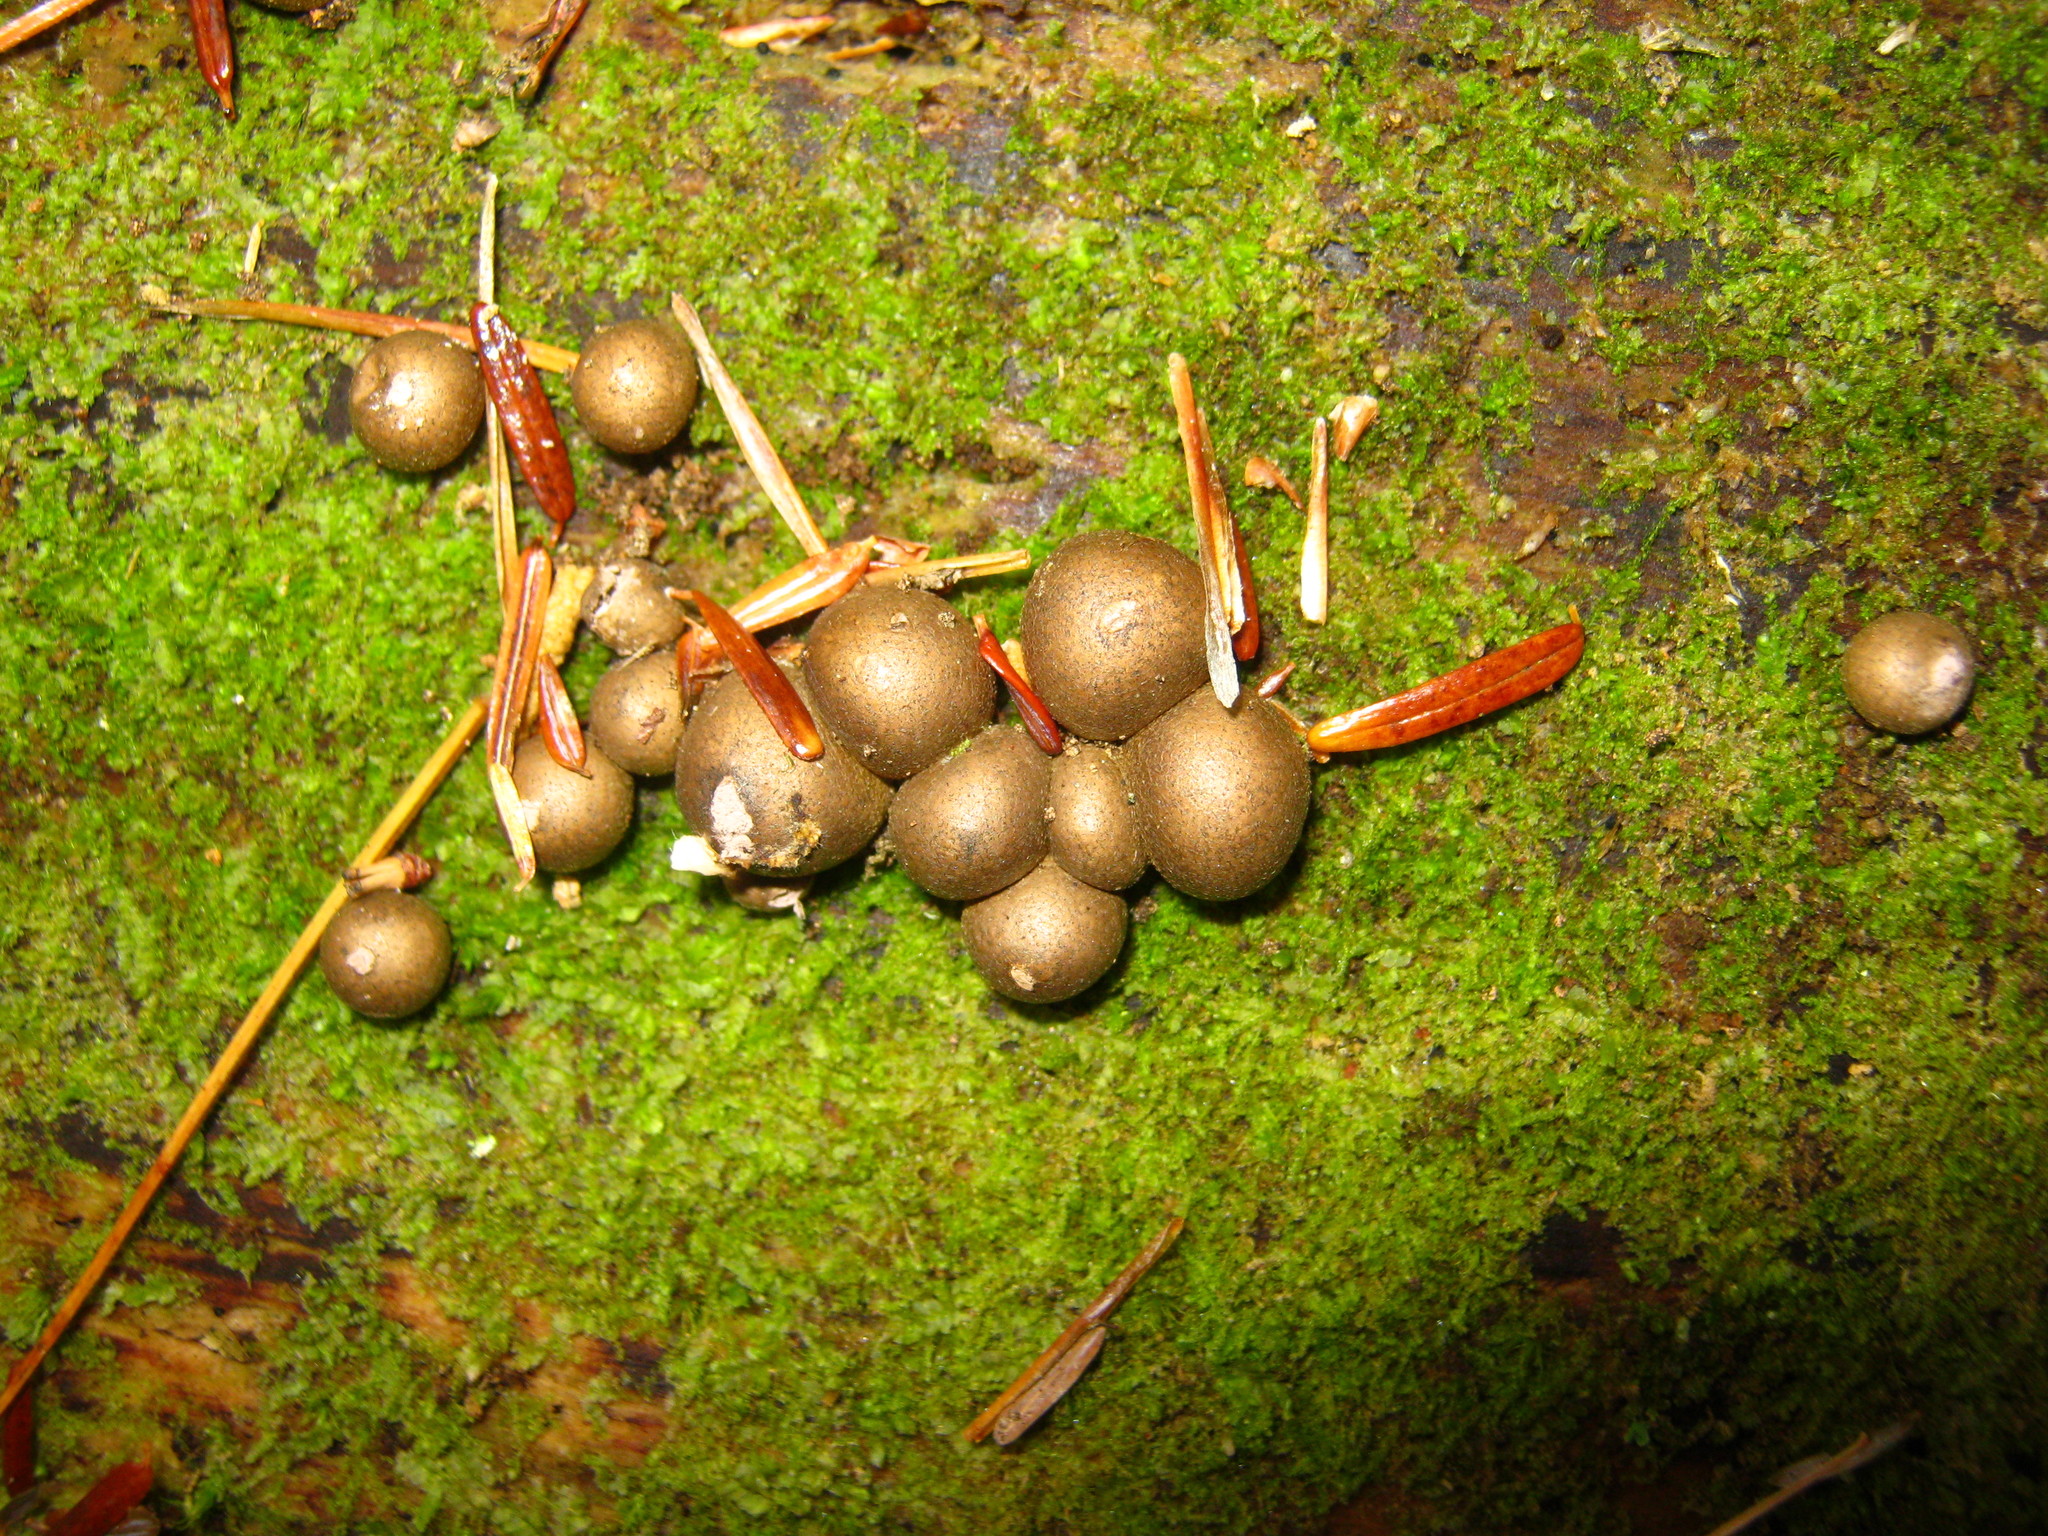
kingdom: Protozoa
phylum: Mycetozoa
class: Myxomycetes
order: Cribrariales
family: Tubiferaceae
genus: Lycogala
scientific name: Lycogala epidendrum
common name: Wolf's milk
